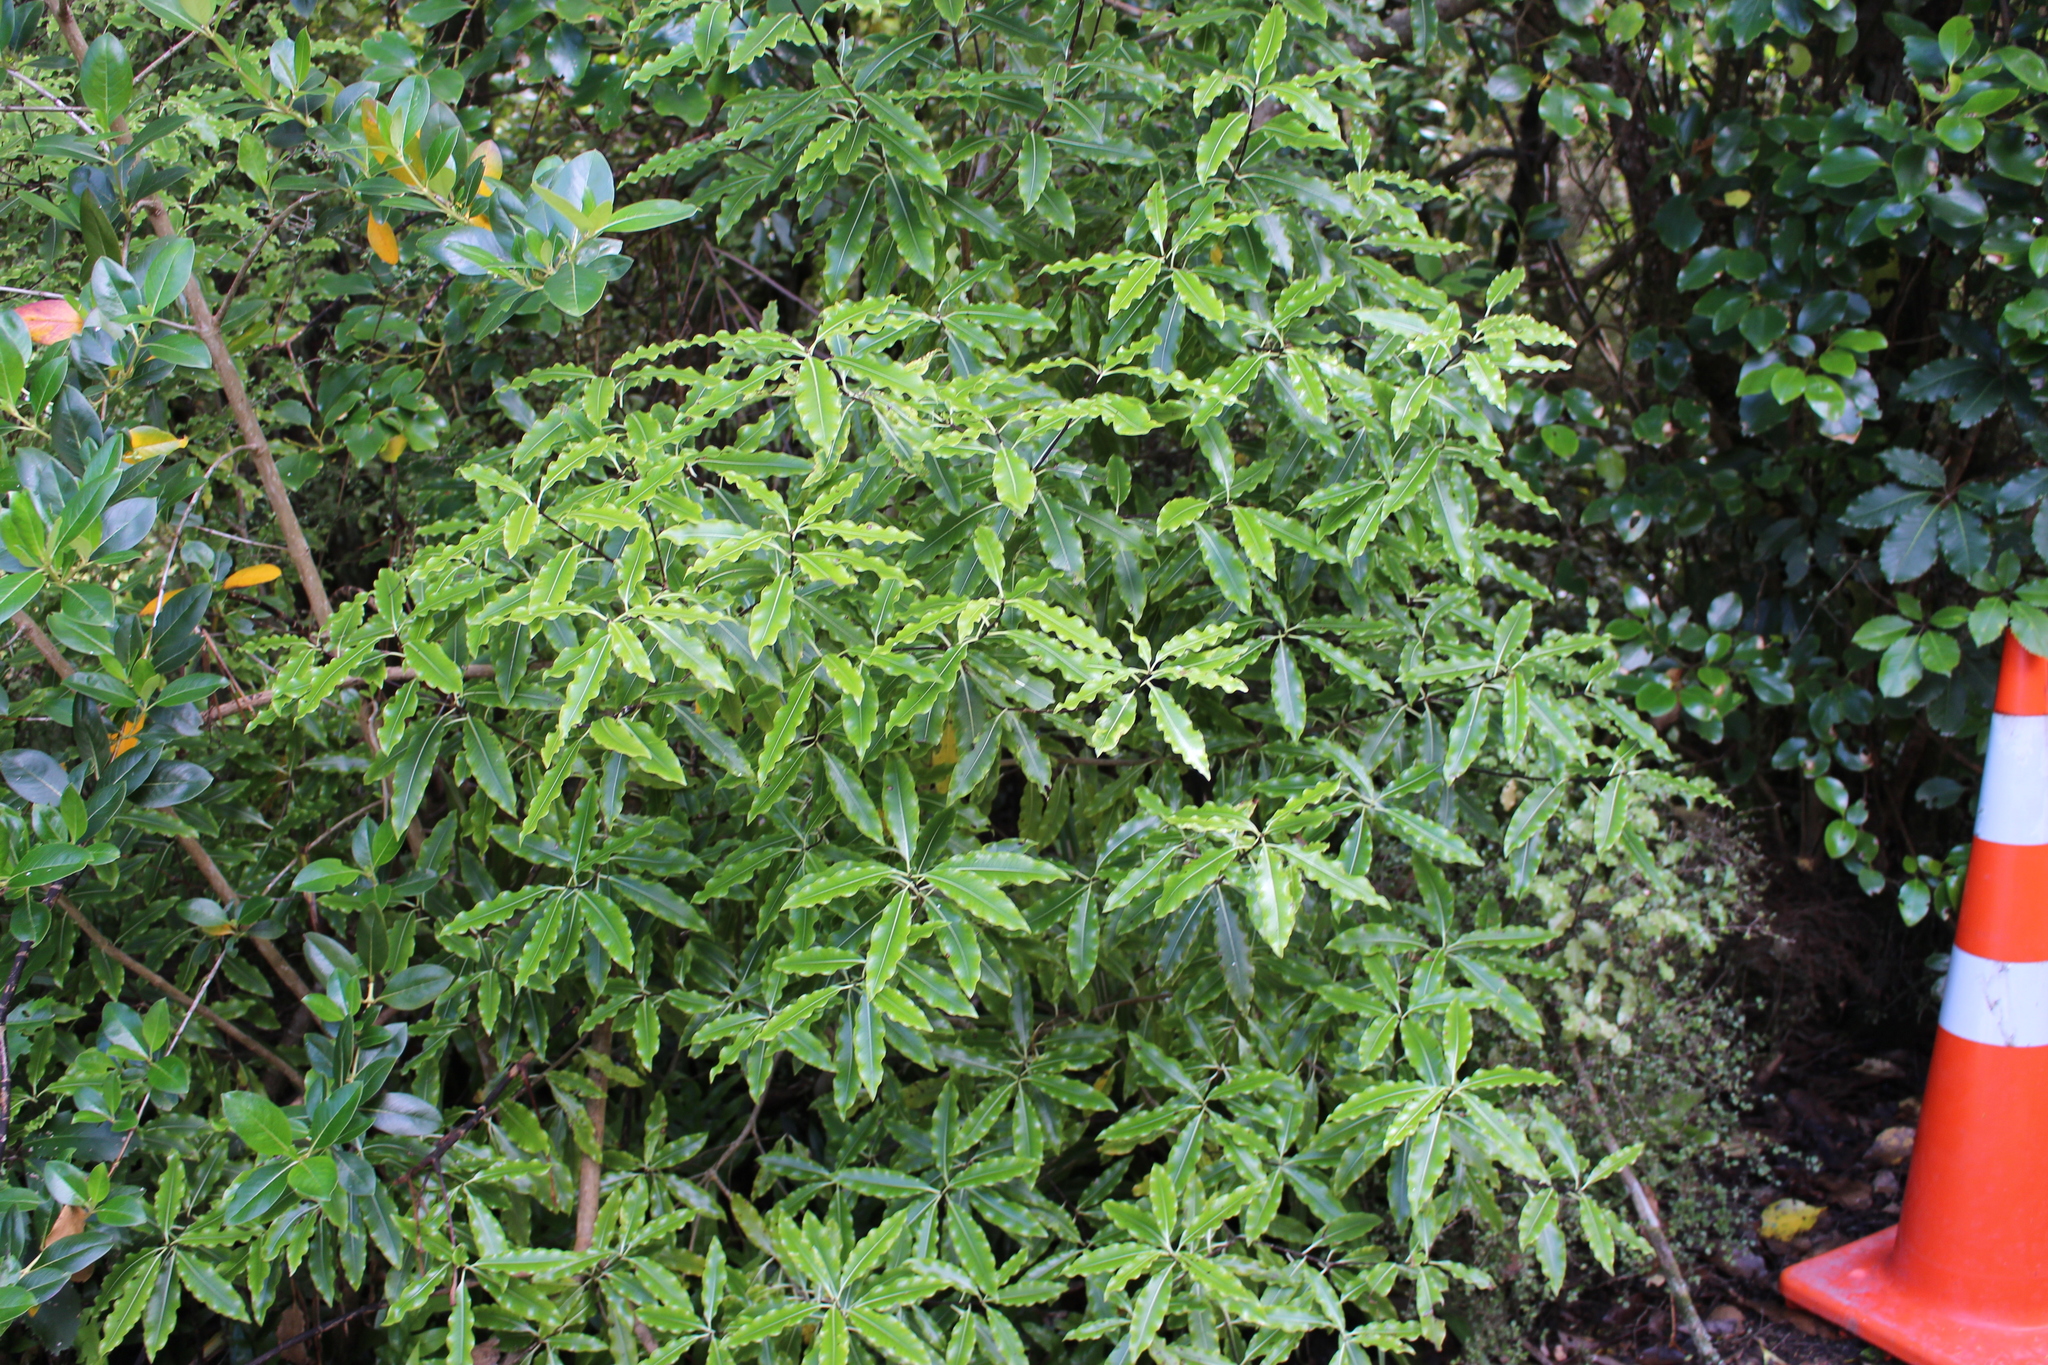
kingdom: Plantae
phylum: Tracheophyta
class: Magnoliopsida
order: Apiales
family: Pittosporaceae
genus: Pittosporum
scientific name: Pittosporum eugenioides
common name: Lemonwood
